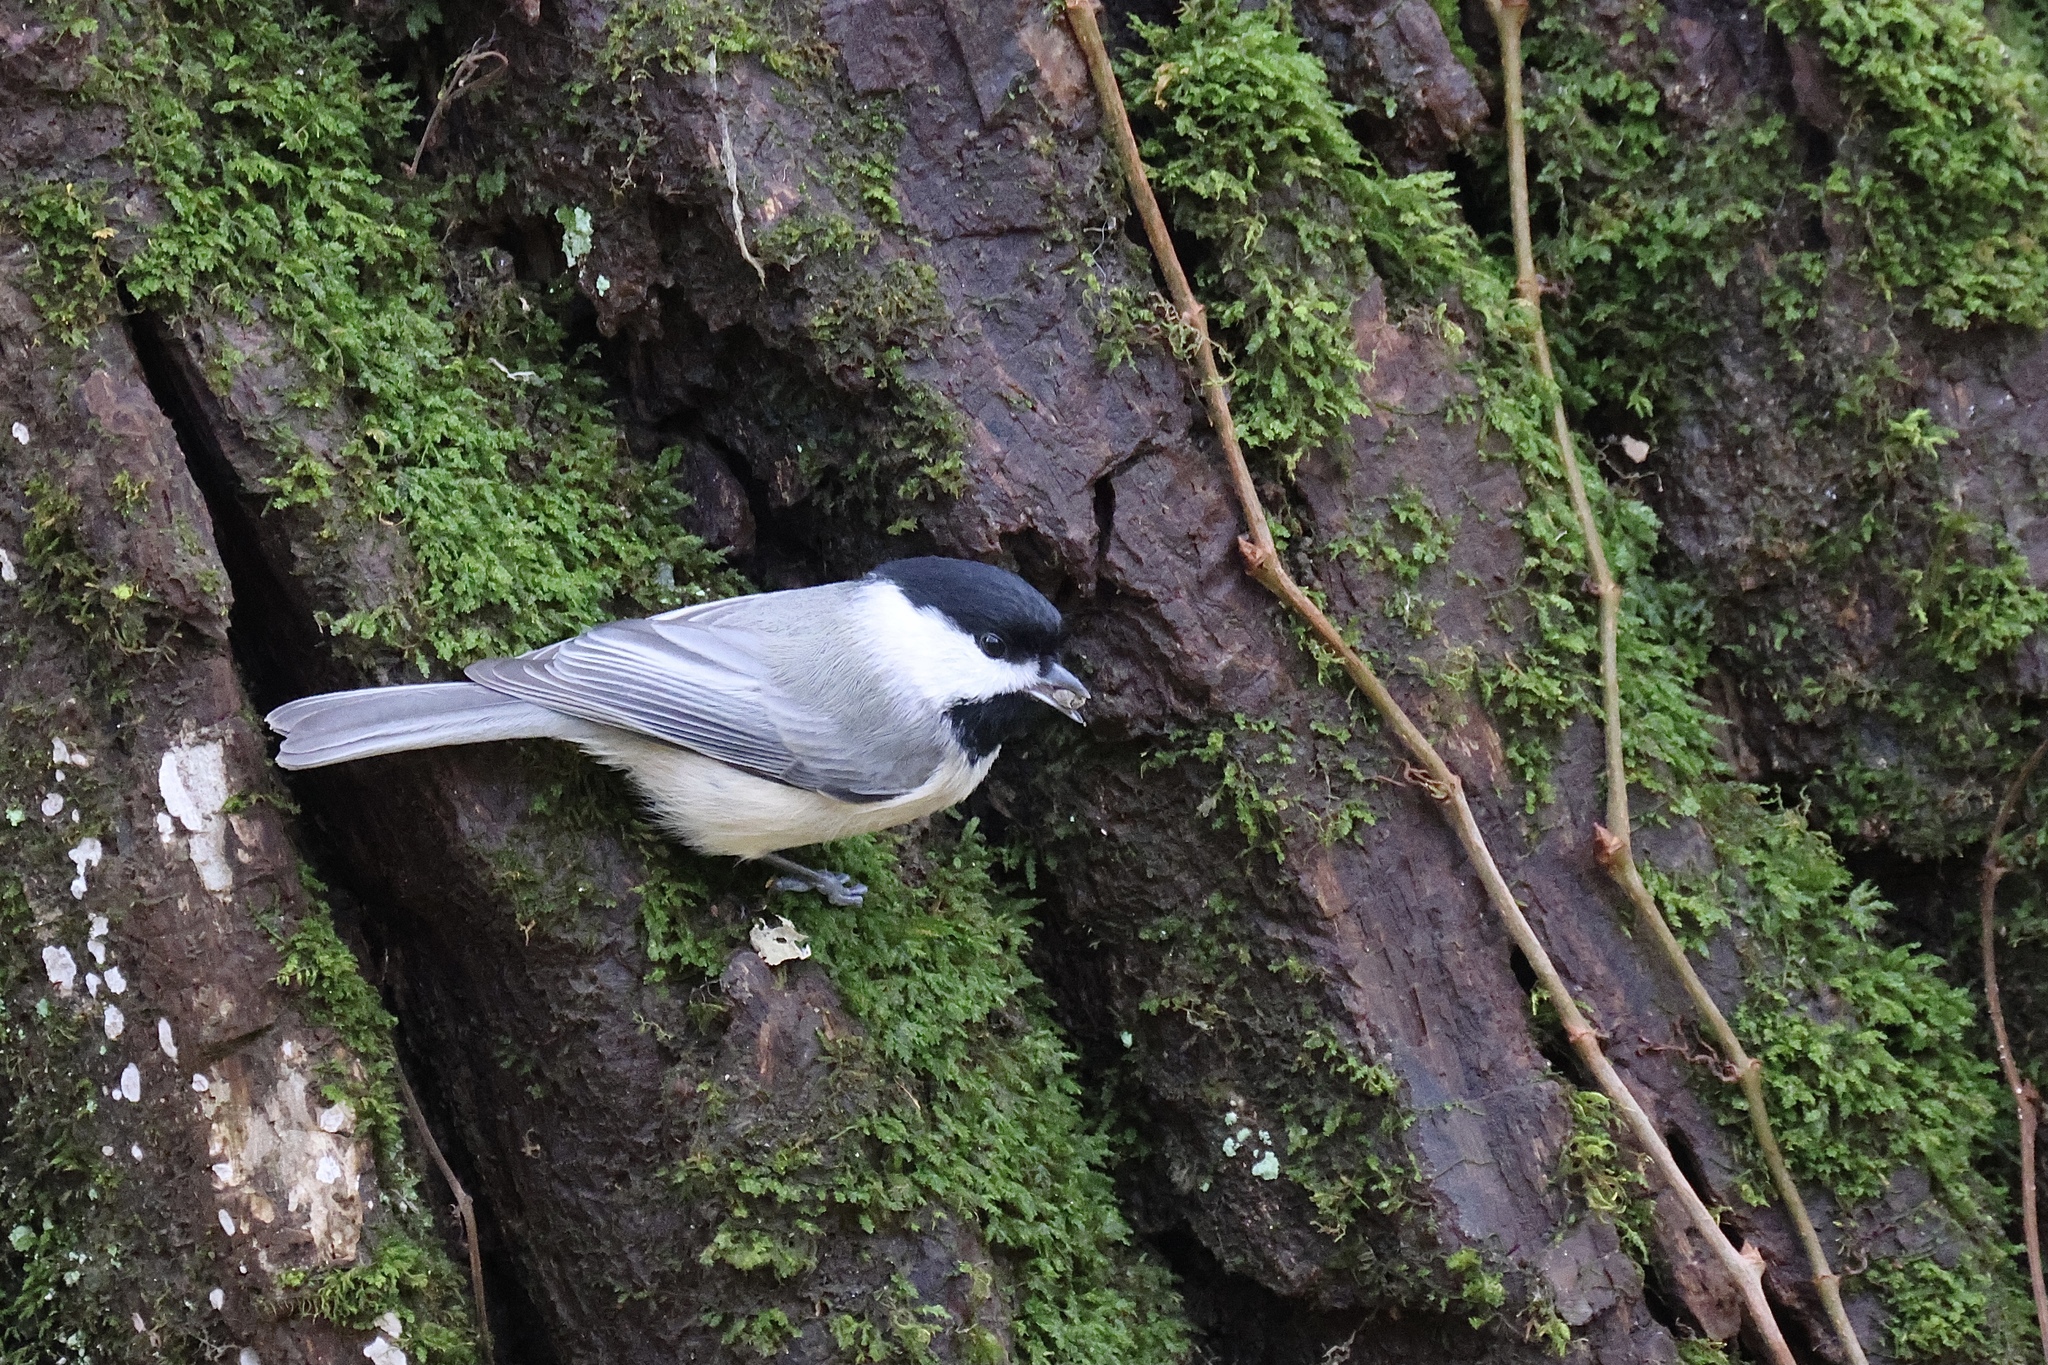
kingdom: Animalia
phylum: Chordata
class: Aves
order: Passeriformes
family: Paridae
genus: Poecile
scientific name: Poecile carolinensis
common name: Carolina chickadee
